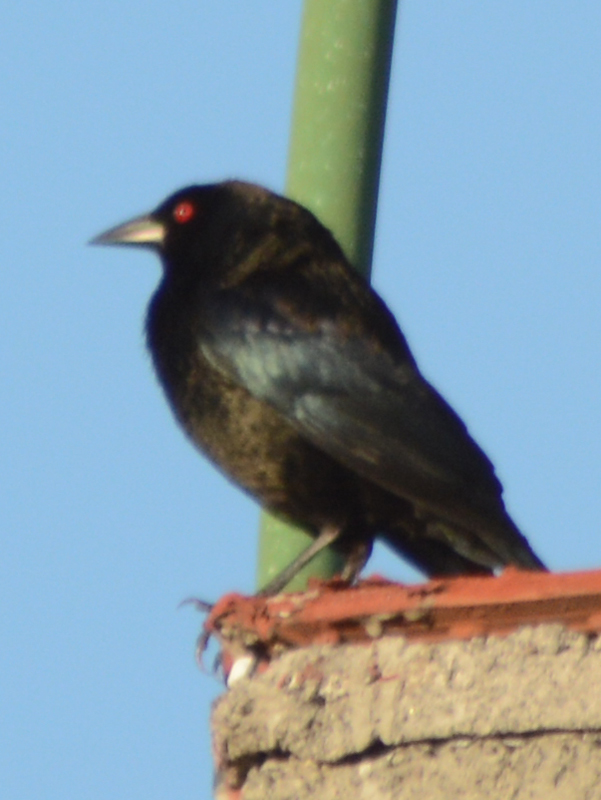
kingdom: Animalia
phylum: Chordata
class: Aves
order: Passeriformes
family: Icteridae
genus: Molothrus
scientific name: Molothrus aeneus
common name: Bronzed cowbird
